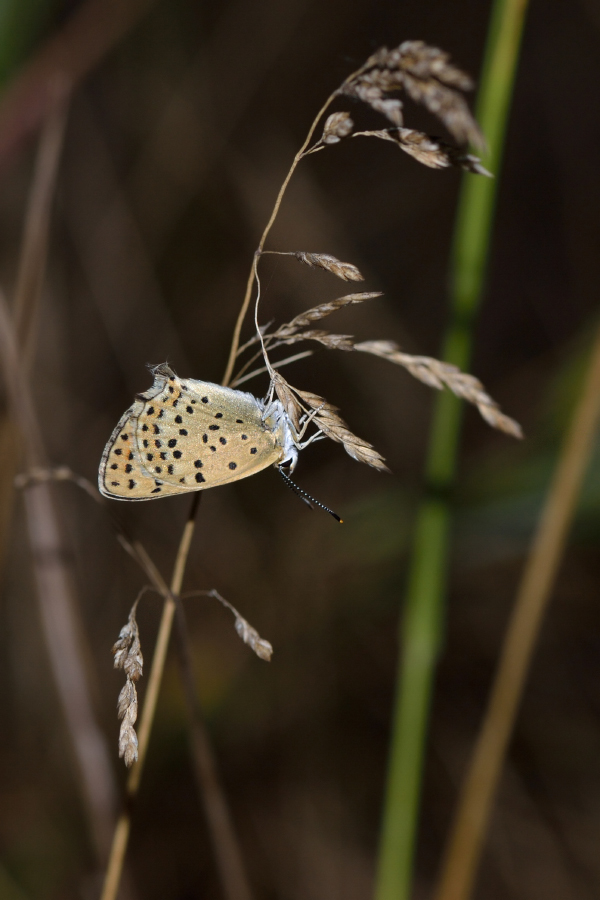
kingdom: Animalia
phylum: Arthropoda
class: Insecta
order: Lepidoptera
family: Lycaenidae
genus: Loweia
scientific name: Loweia tityrus
